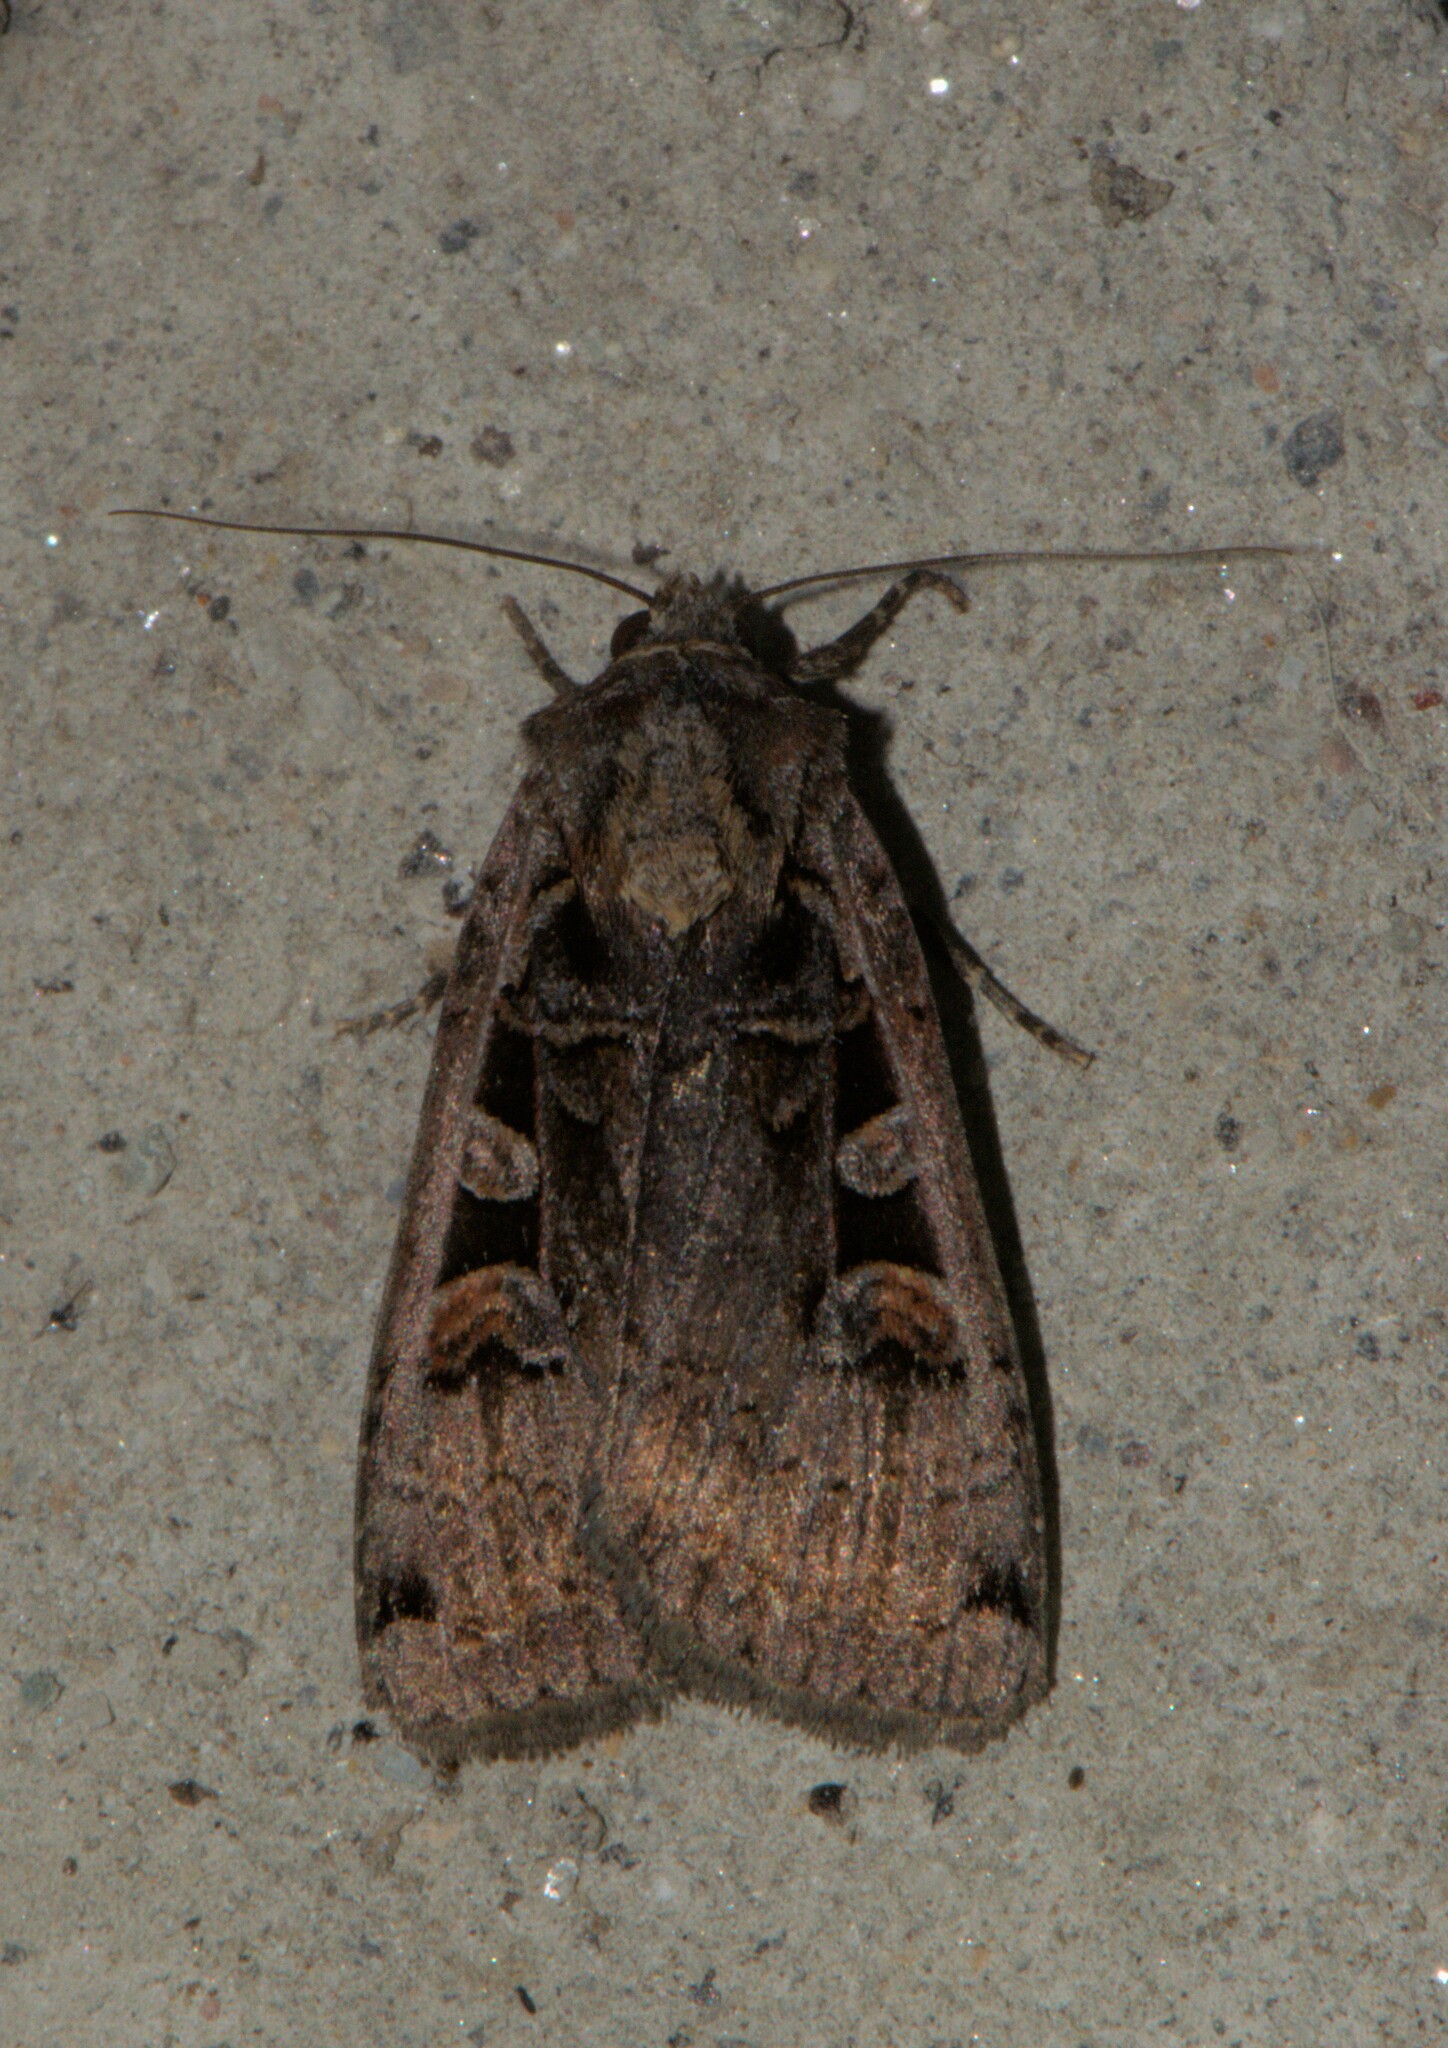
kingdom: Animalia
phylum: Arthropoda
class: Insecta
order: Lepidoptera
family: Noctuidae
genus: Dichagyris
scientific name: Dichagyris
